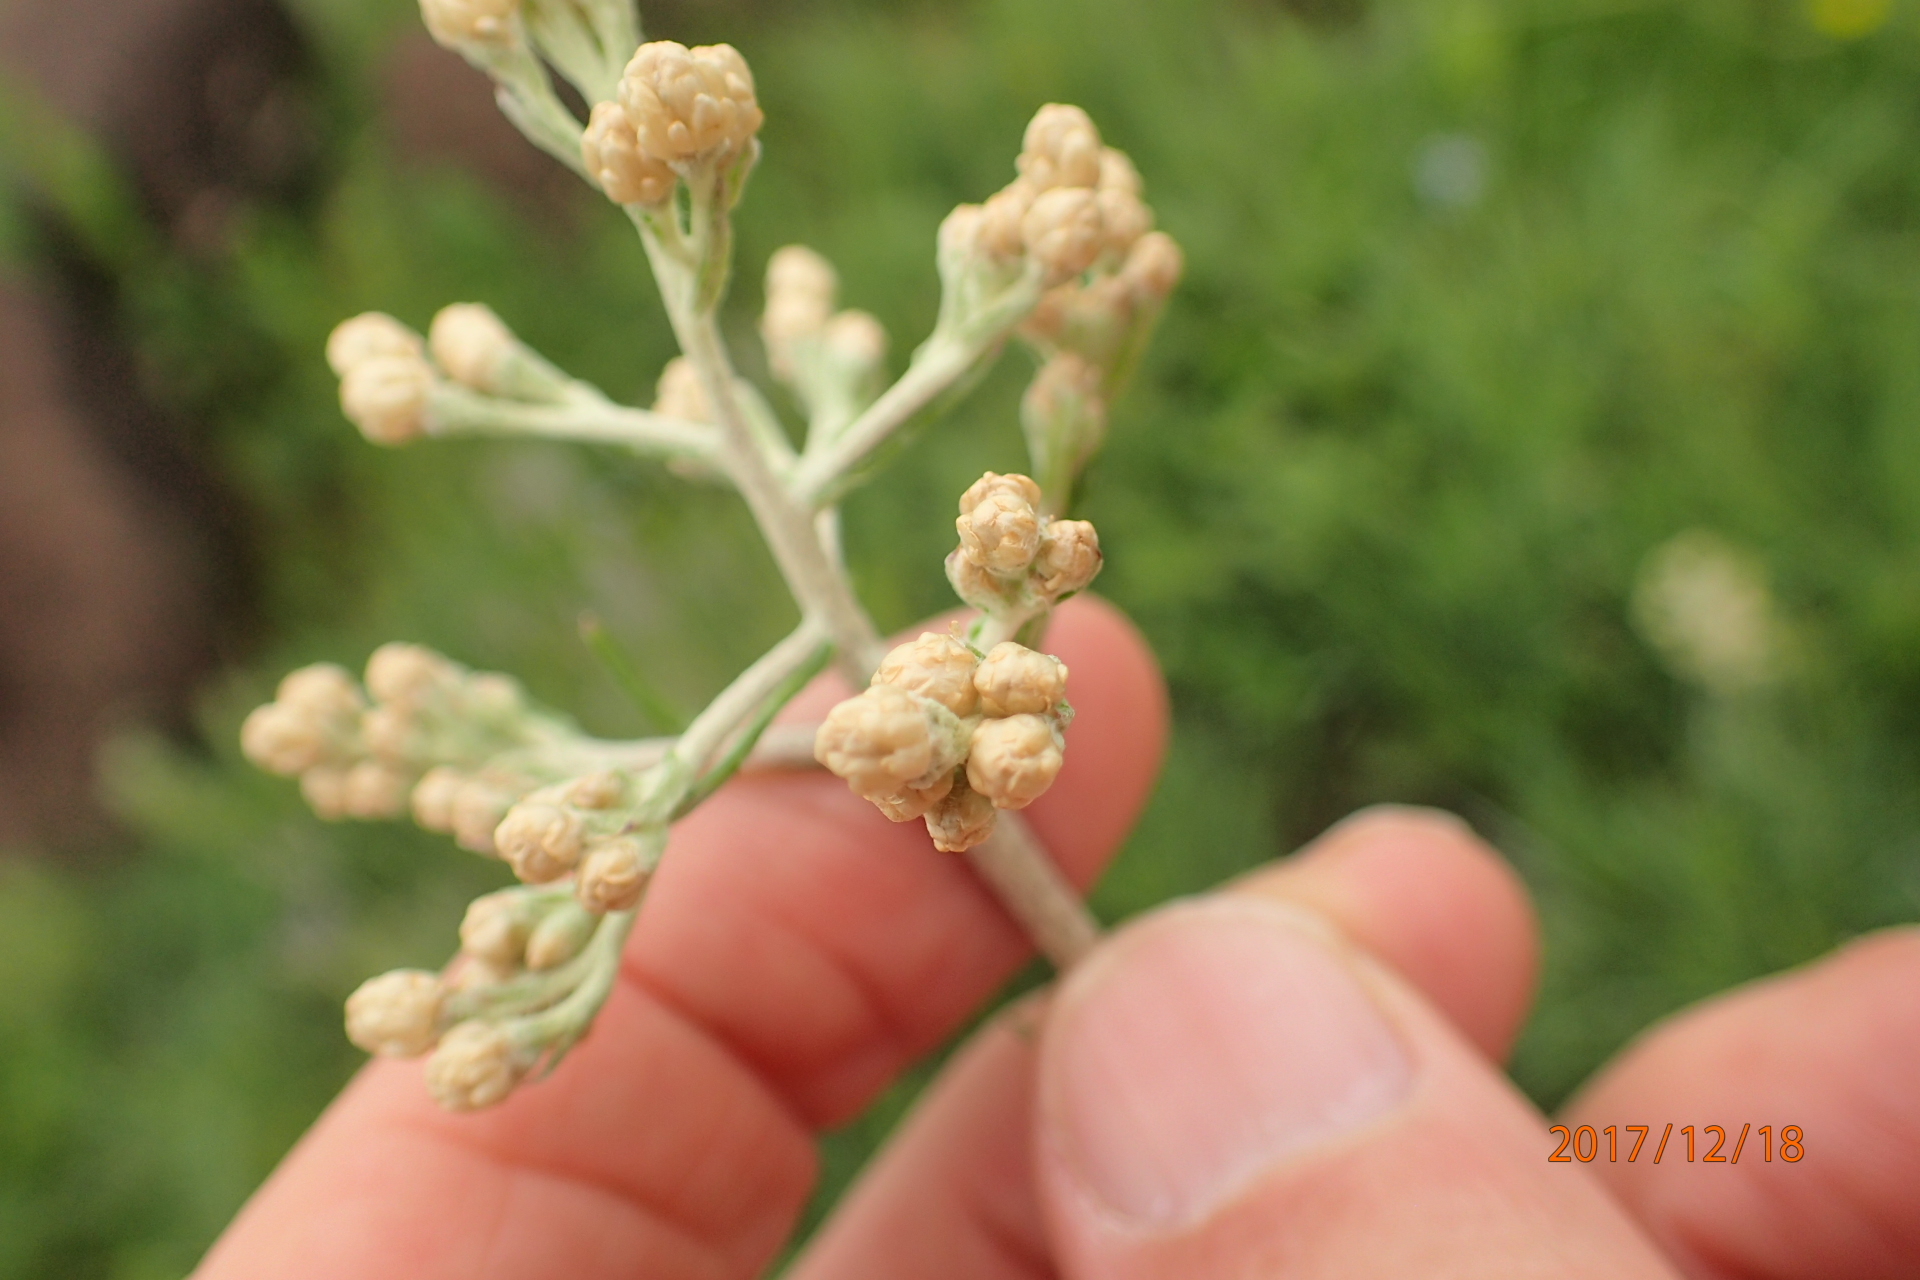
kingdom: Plantae
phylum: Tracheophyta
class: Magnoliopsida
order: Asterales
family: Asteraceae
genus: Helichrysum
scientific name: Helichrysum miconiifolium
